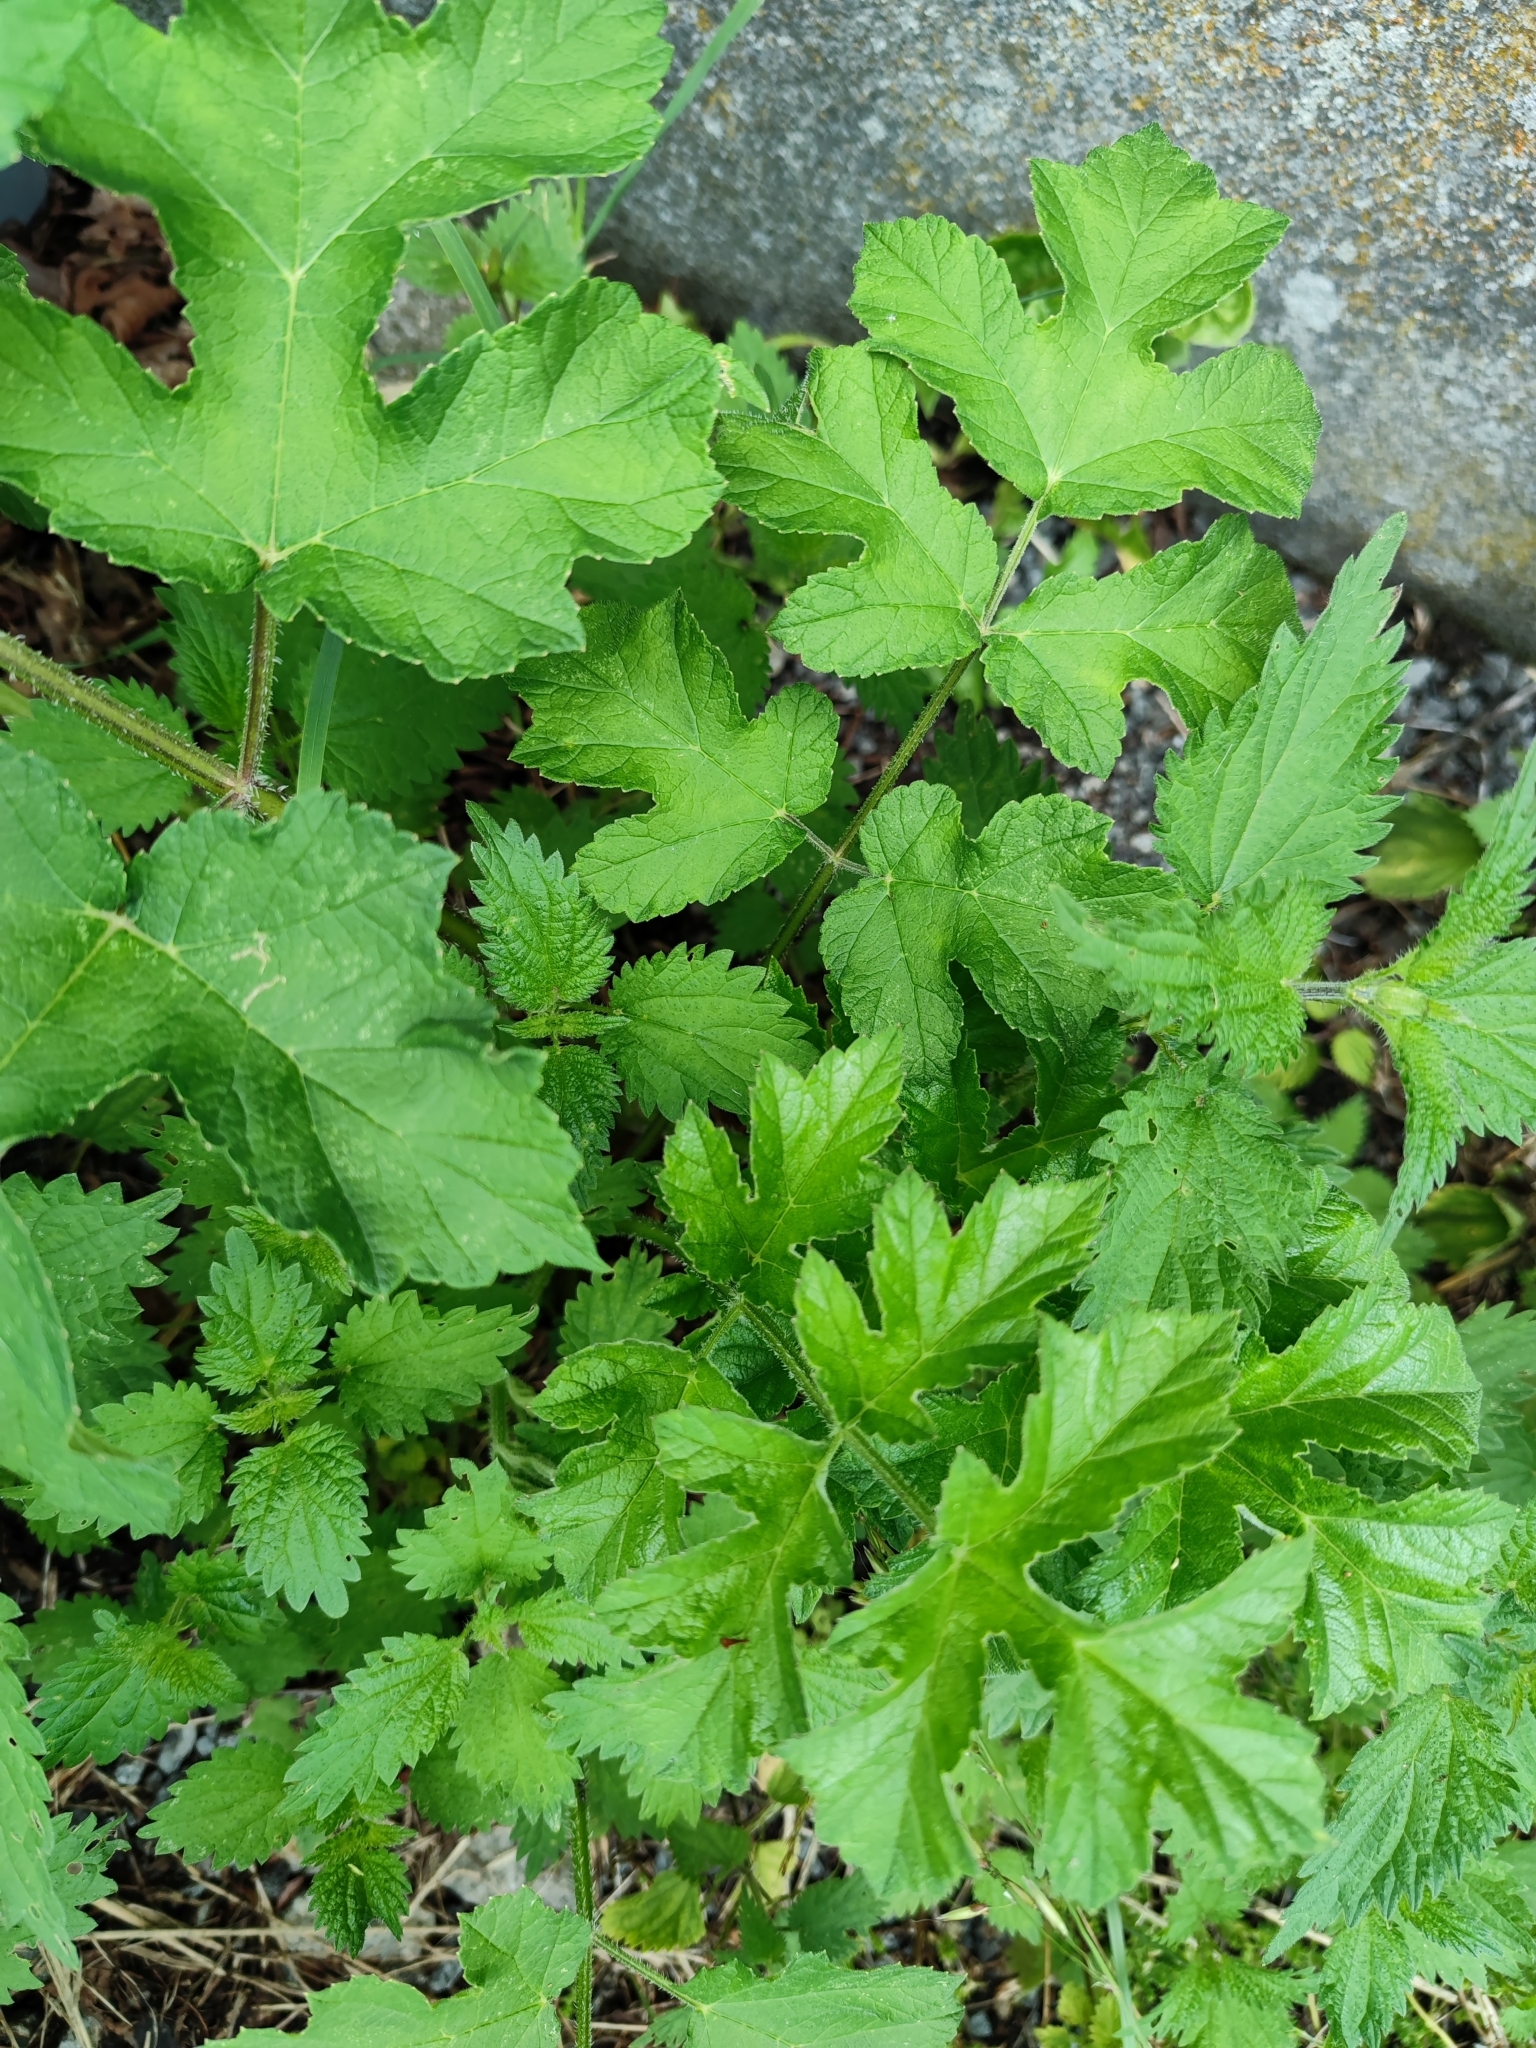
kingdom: Plantae
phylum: Tracheophyta
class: Magnoliopsida
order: Apiales
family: Apiaceae
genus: Heracleum
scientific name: Heracleum sphondylium
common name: Hogweed
